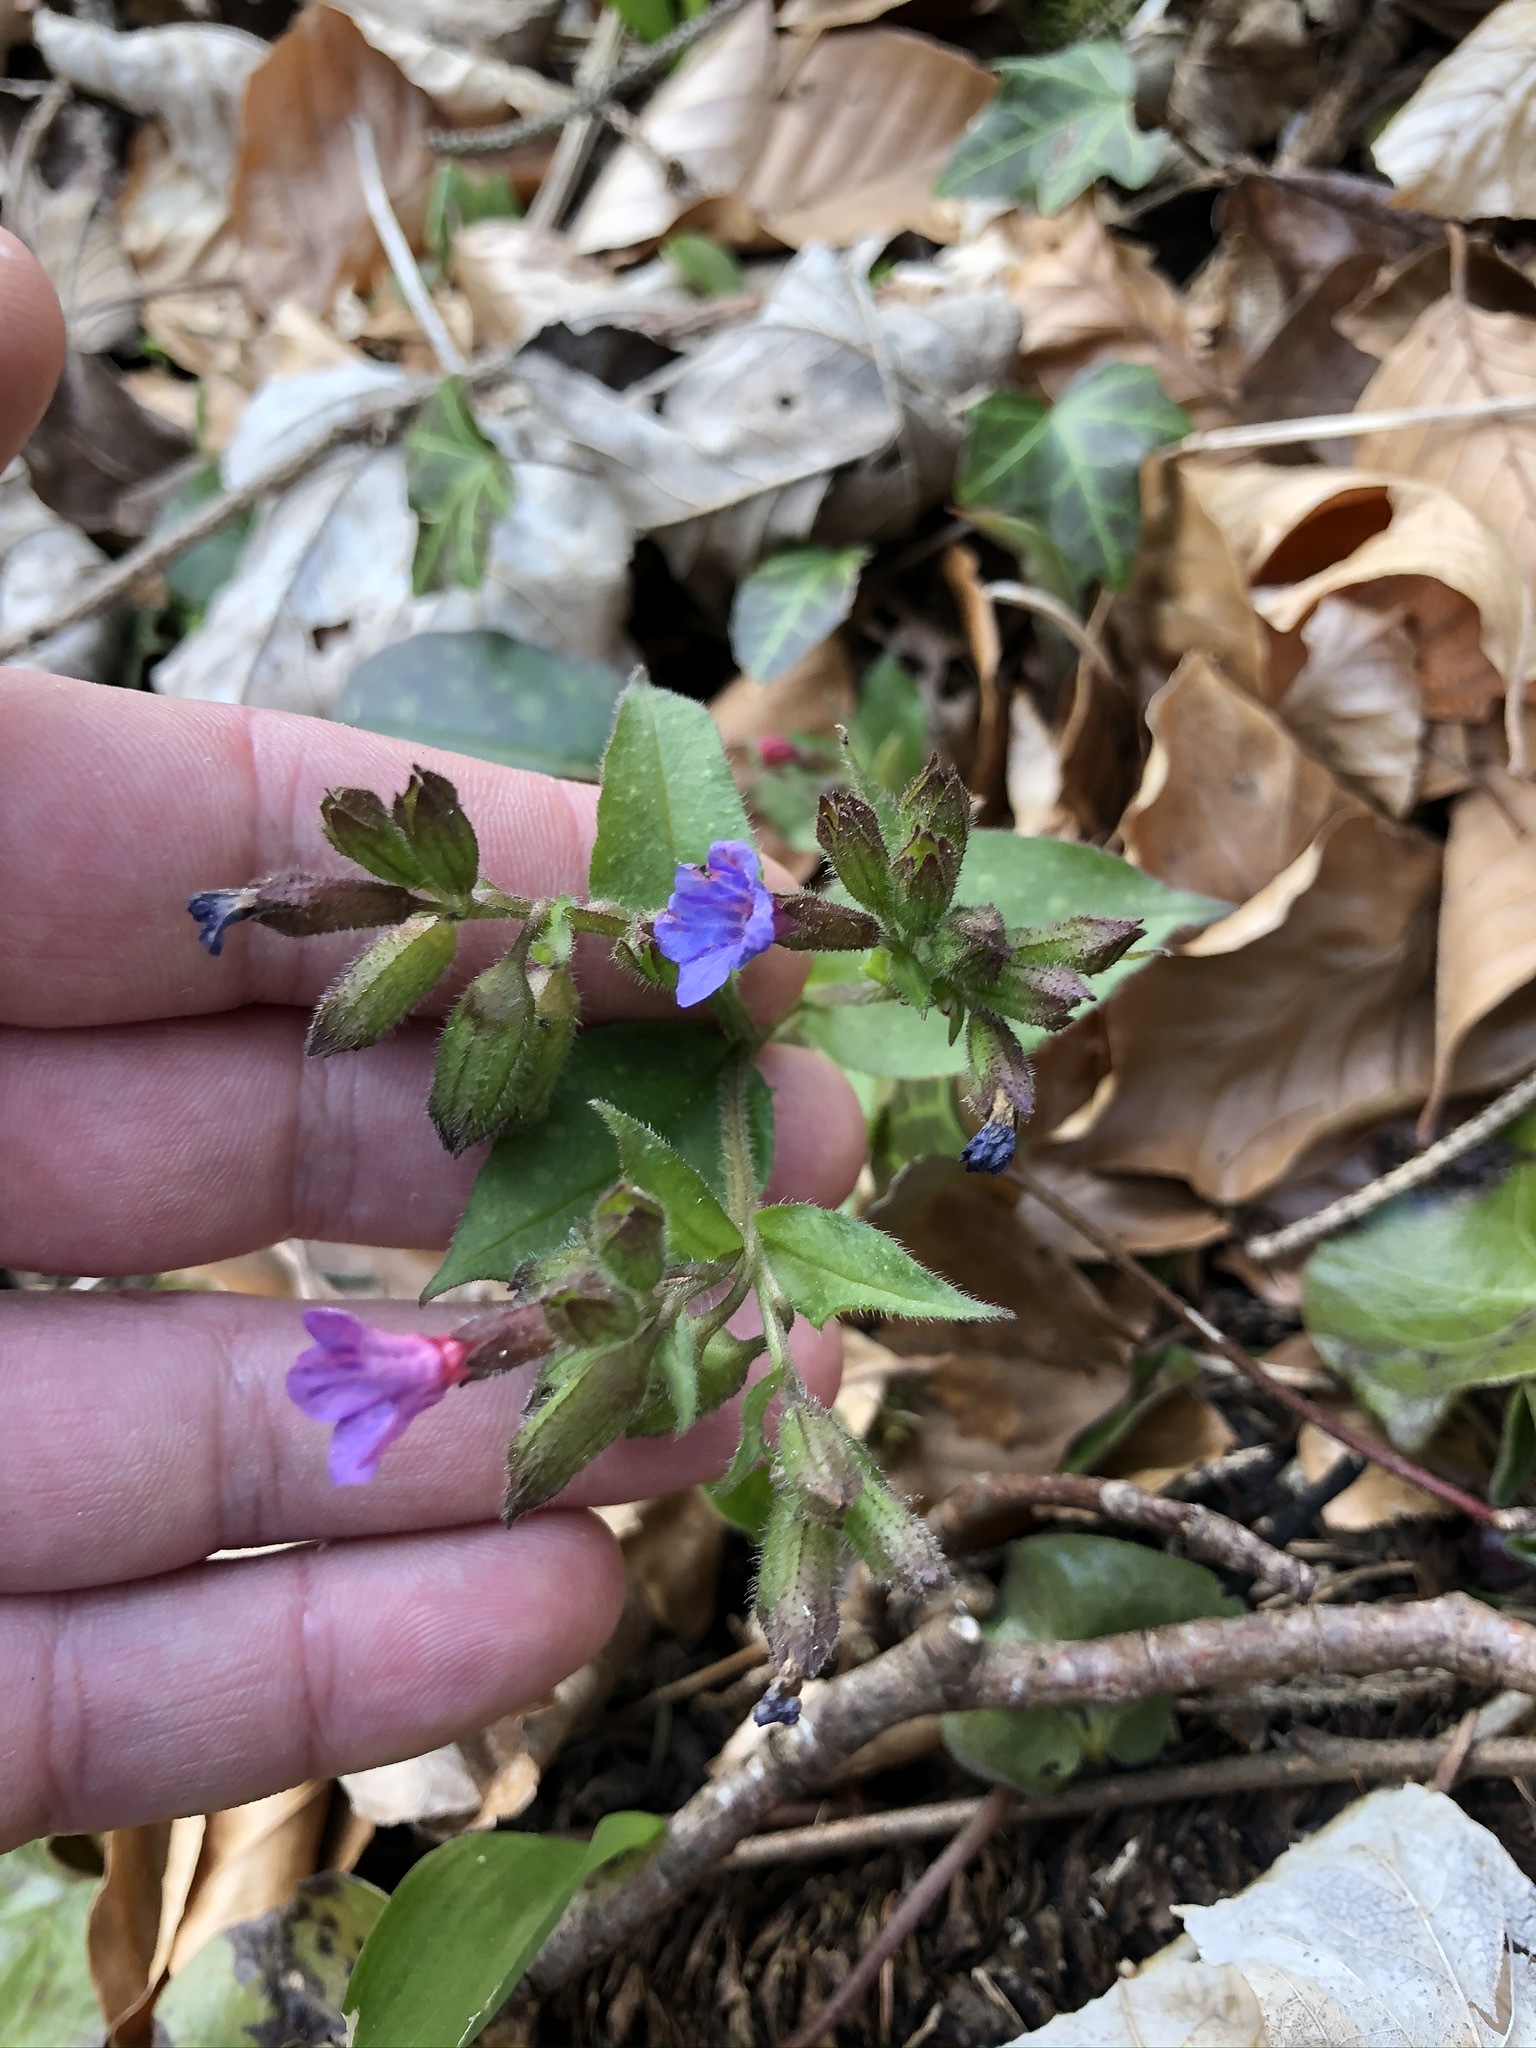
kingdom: Plantae
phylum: Tracheophyta
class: Magnoliopsida
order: Boraginales
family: Boraginaceae
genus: Pulmonaria
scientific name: Pulmonaria officinalis
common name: Lungwort
